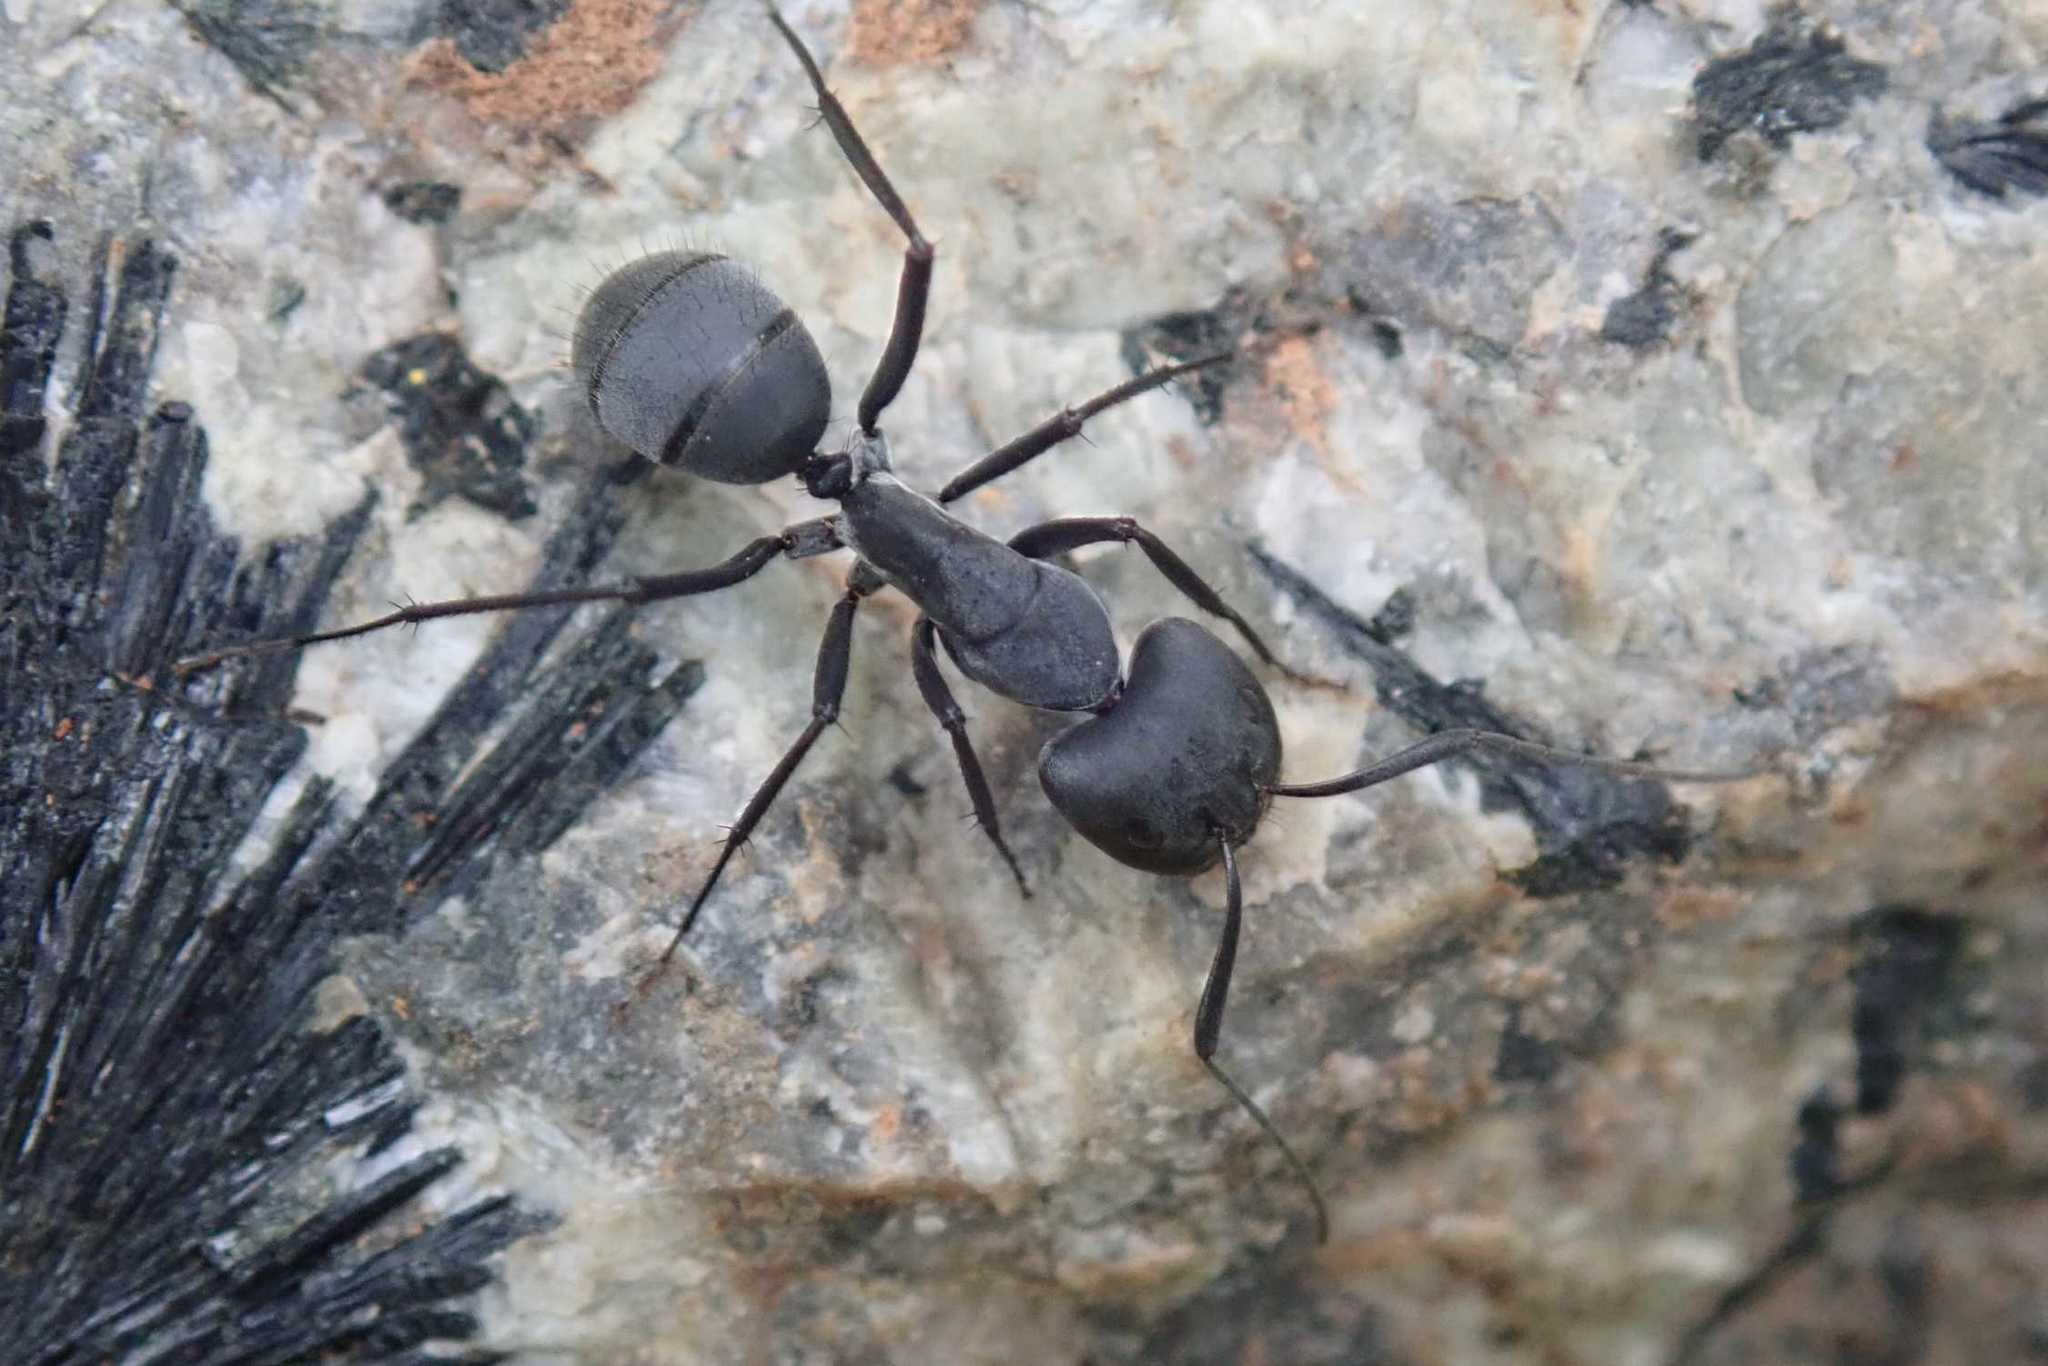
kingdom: Animalia
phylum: Arthropoda
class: Insecta
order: Hymenoptera
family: Formicidae
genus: Camponotus
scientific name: Camponotus petersii
